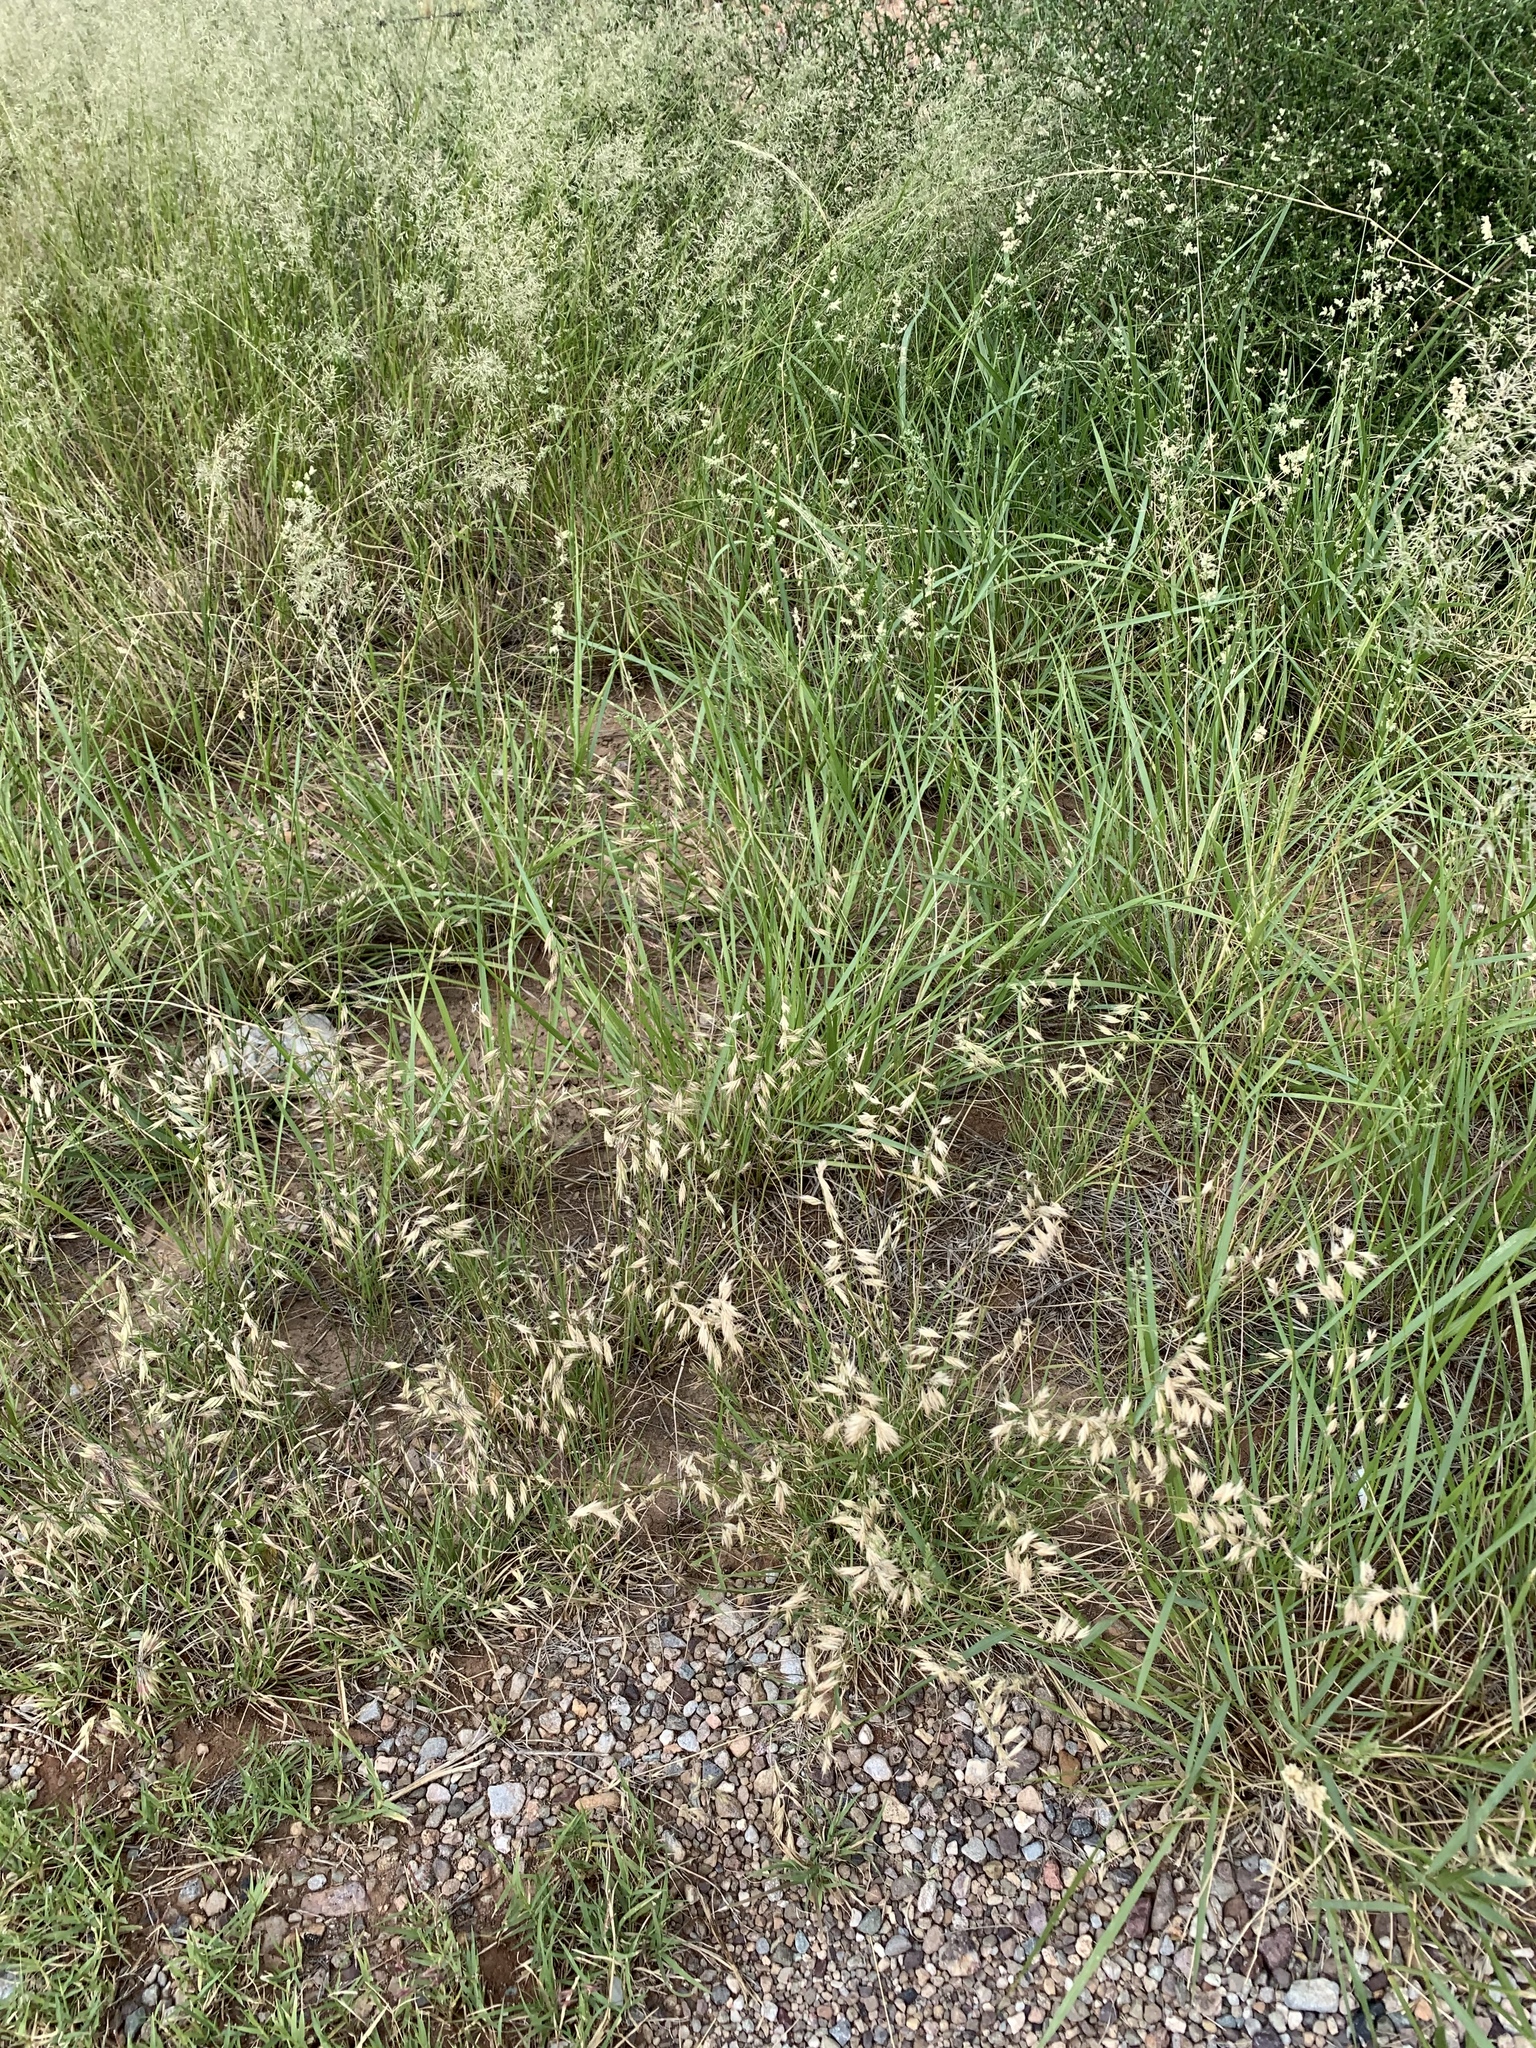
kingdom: Plantae
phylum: Tracheophyta
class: Liliopsida
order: Poales
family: Poaceae
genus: Bouteloua
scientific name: Bouteloua repens
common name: Slender grama
